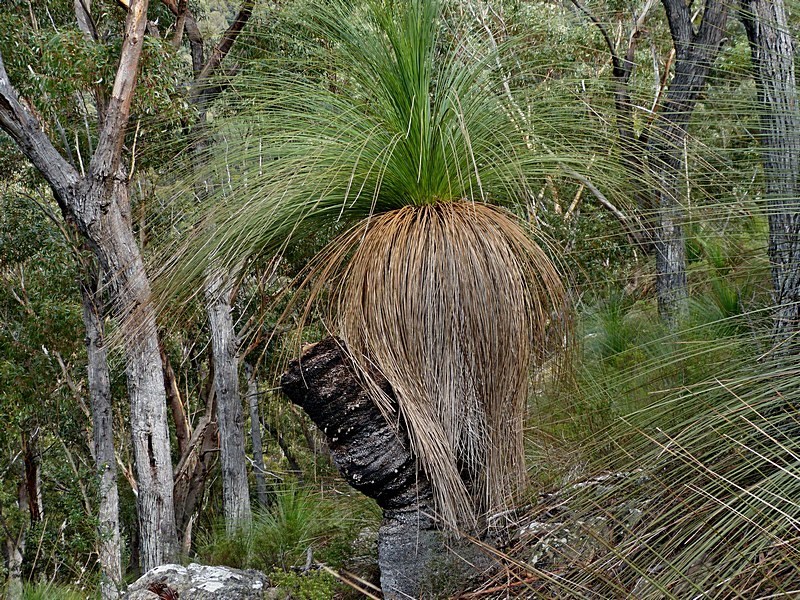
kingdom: Plantae
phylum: Tracheophyta
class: Liliopsida
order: Asparagales
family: Asphodelaceae
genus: Xanthorrhoea
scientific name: Xanthorrhoea australis
